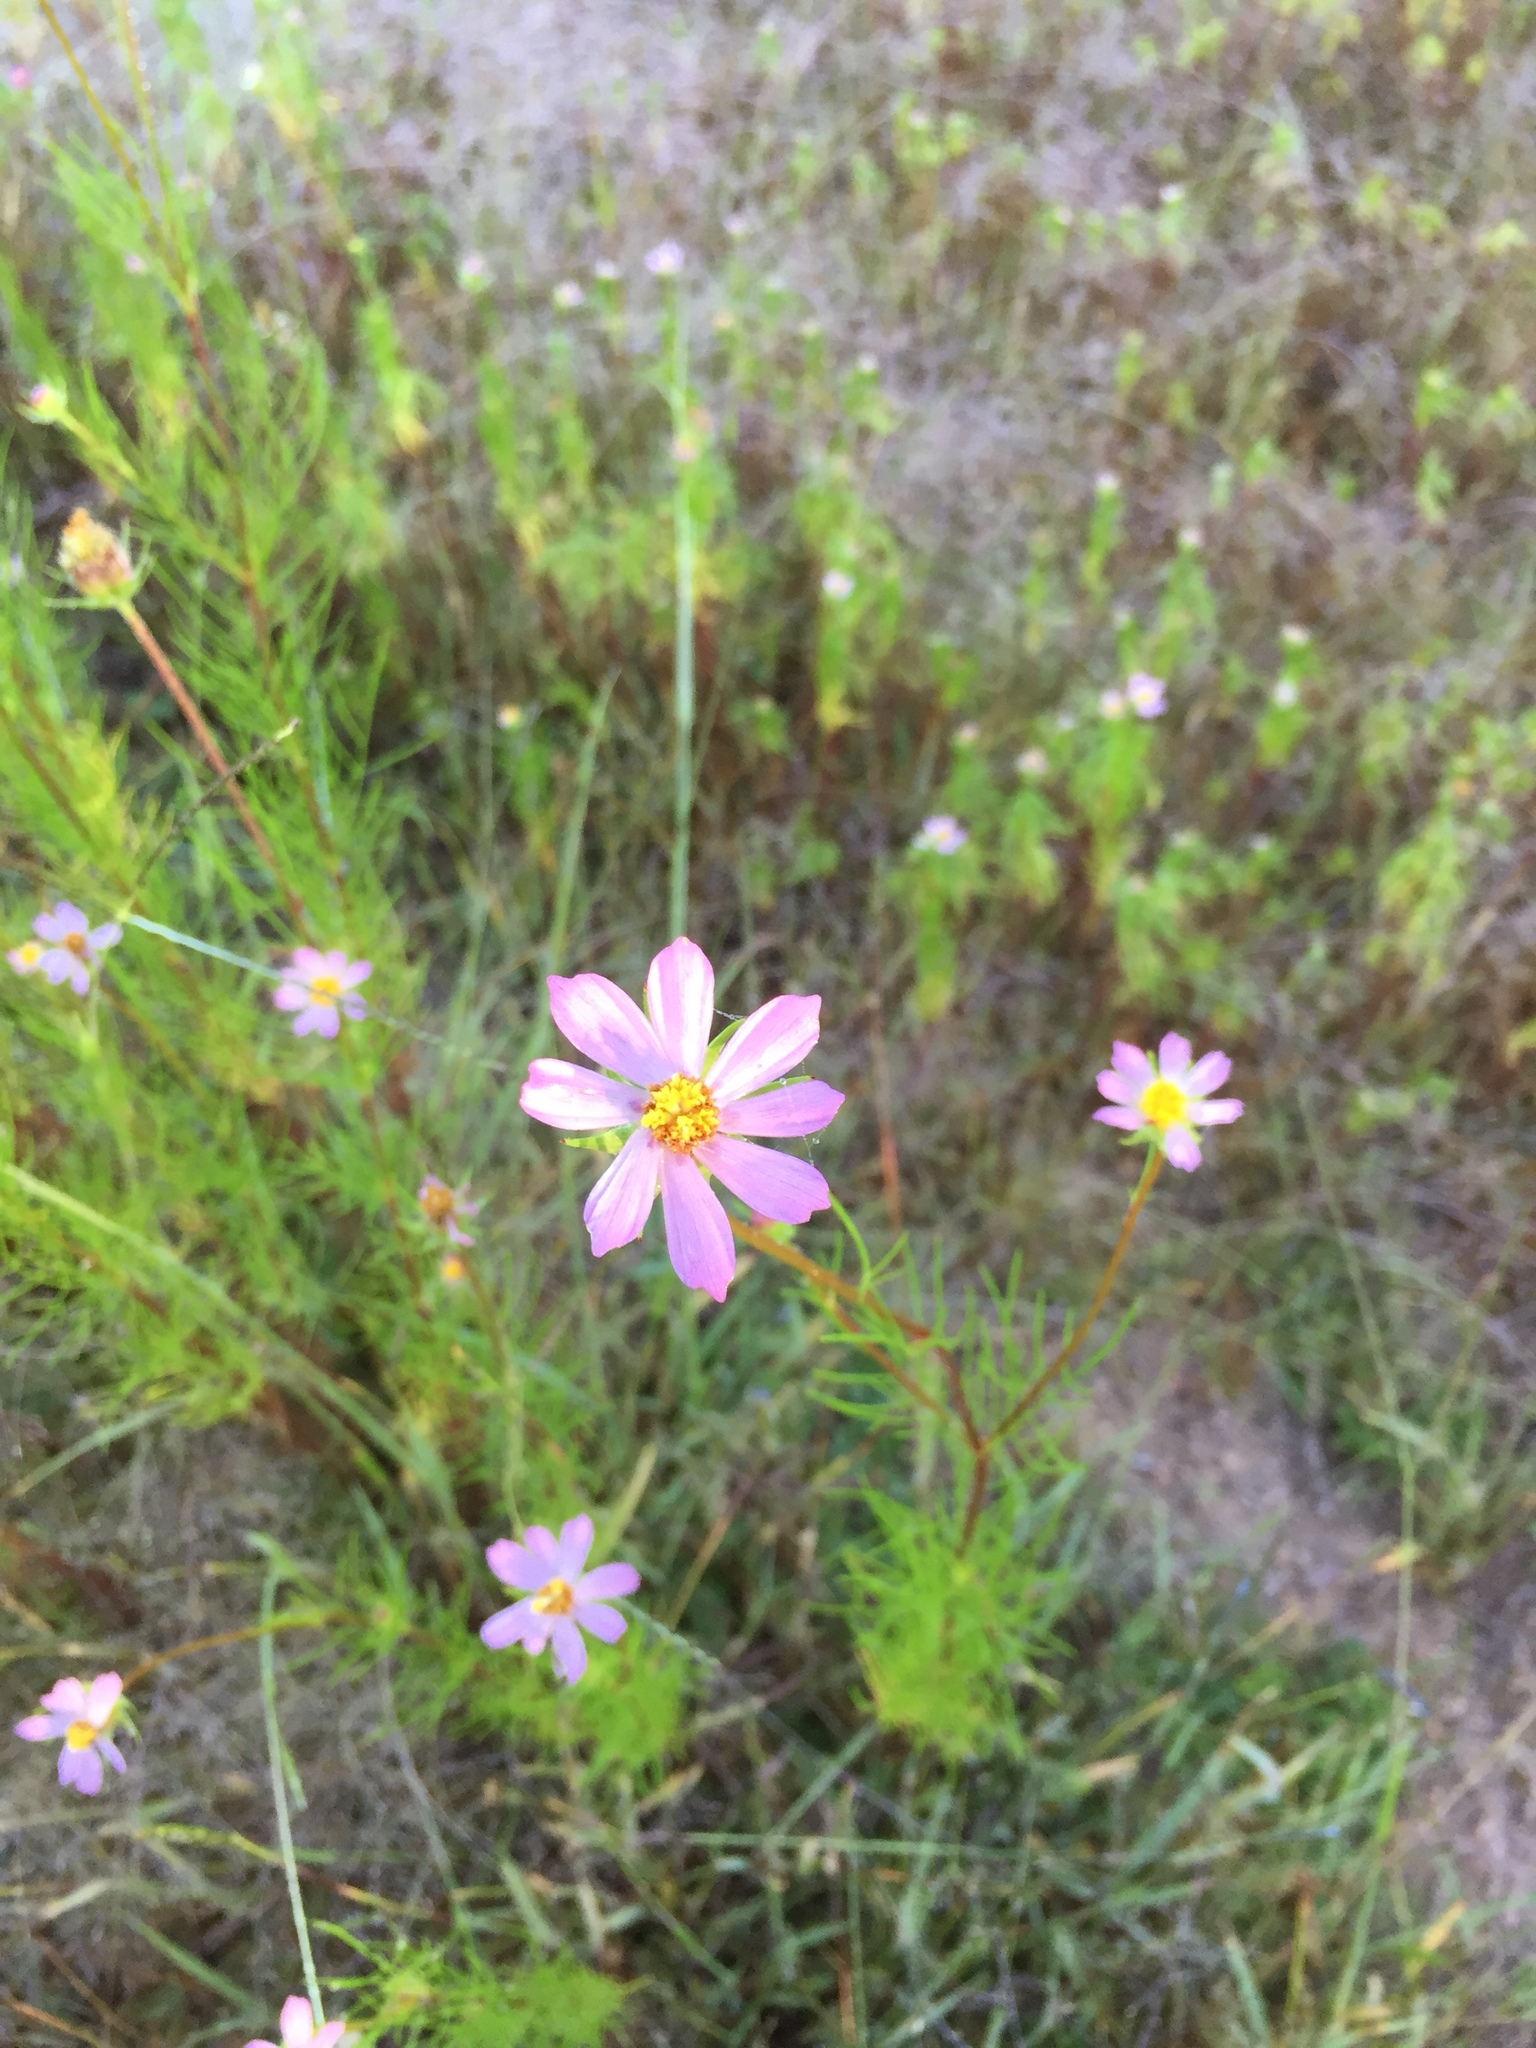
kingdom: Plantae
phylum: Tracheophyta
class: Magnoliopsida
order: Asterales
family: Asteraceae
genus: Cosmos
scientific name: Cosmos bipinnatus
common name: Garden cosmos
